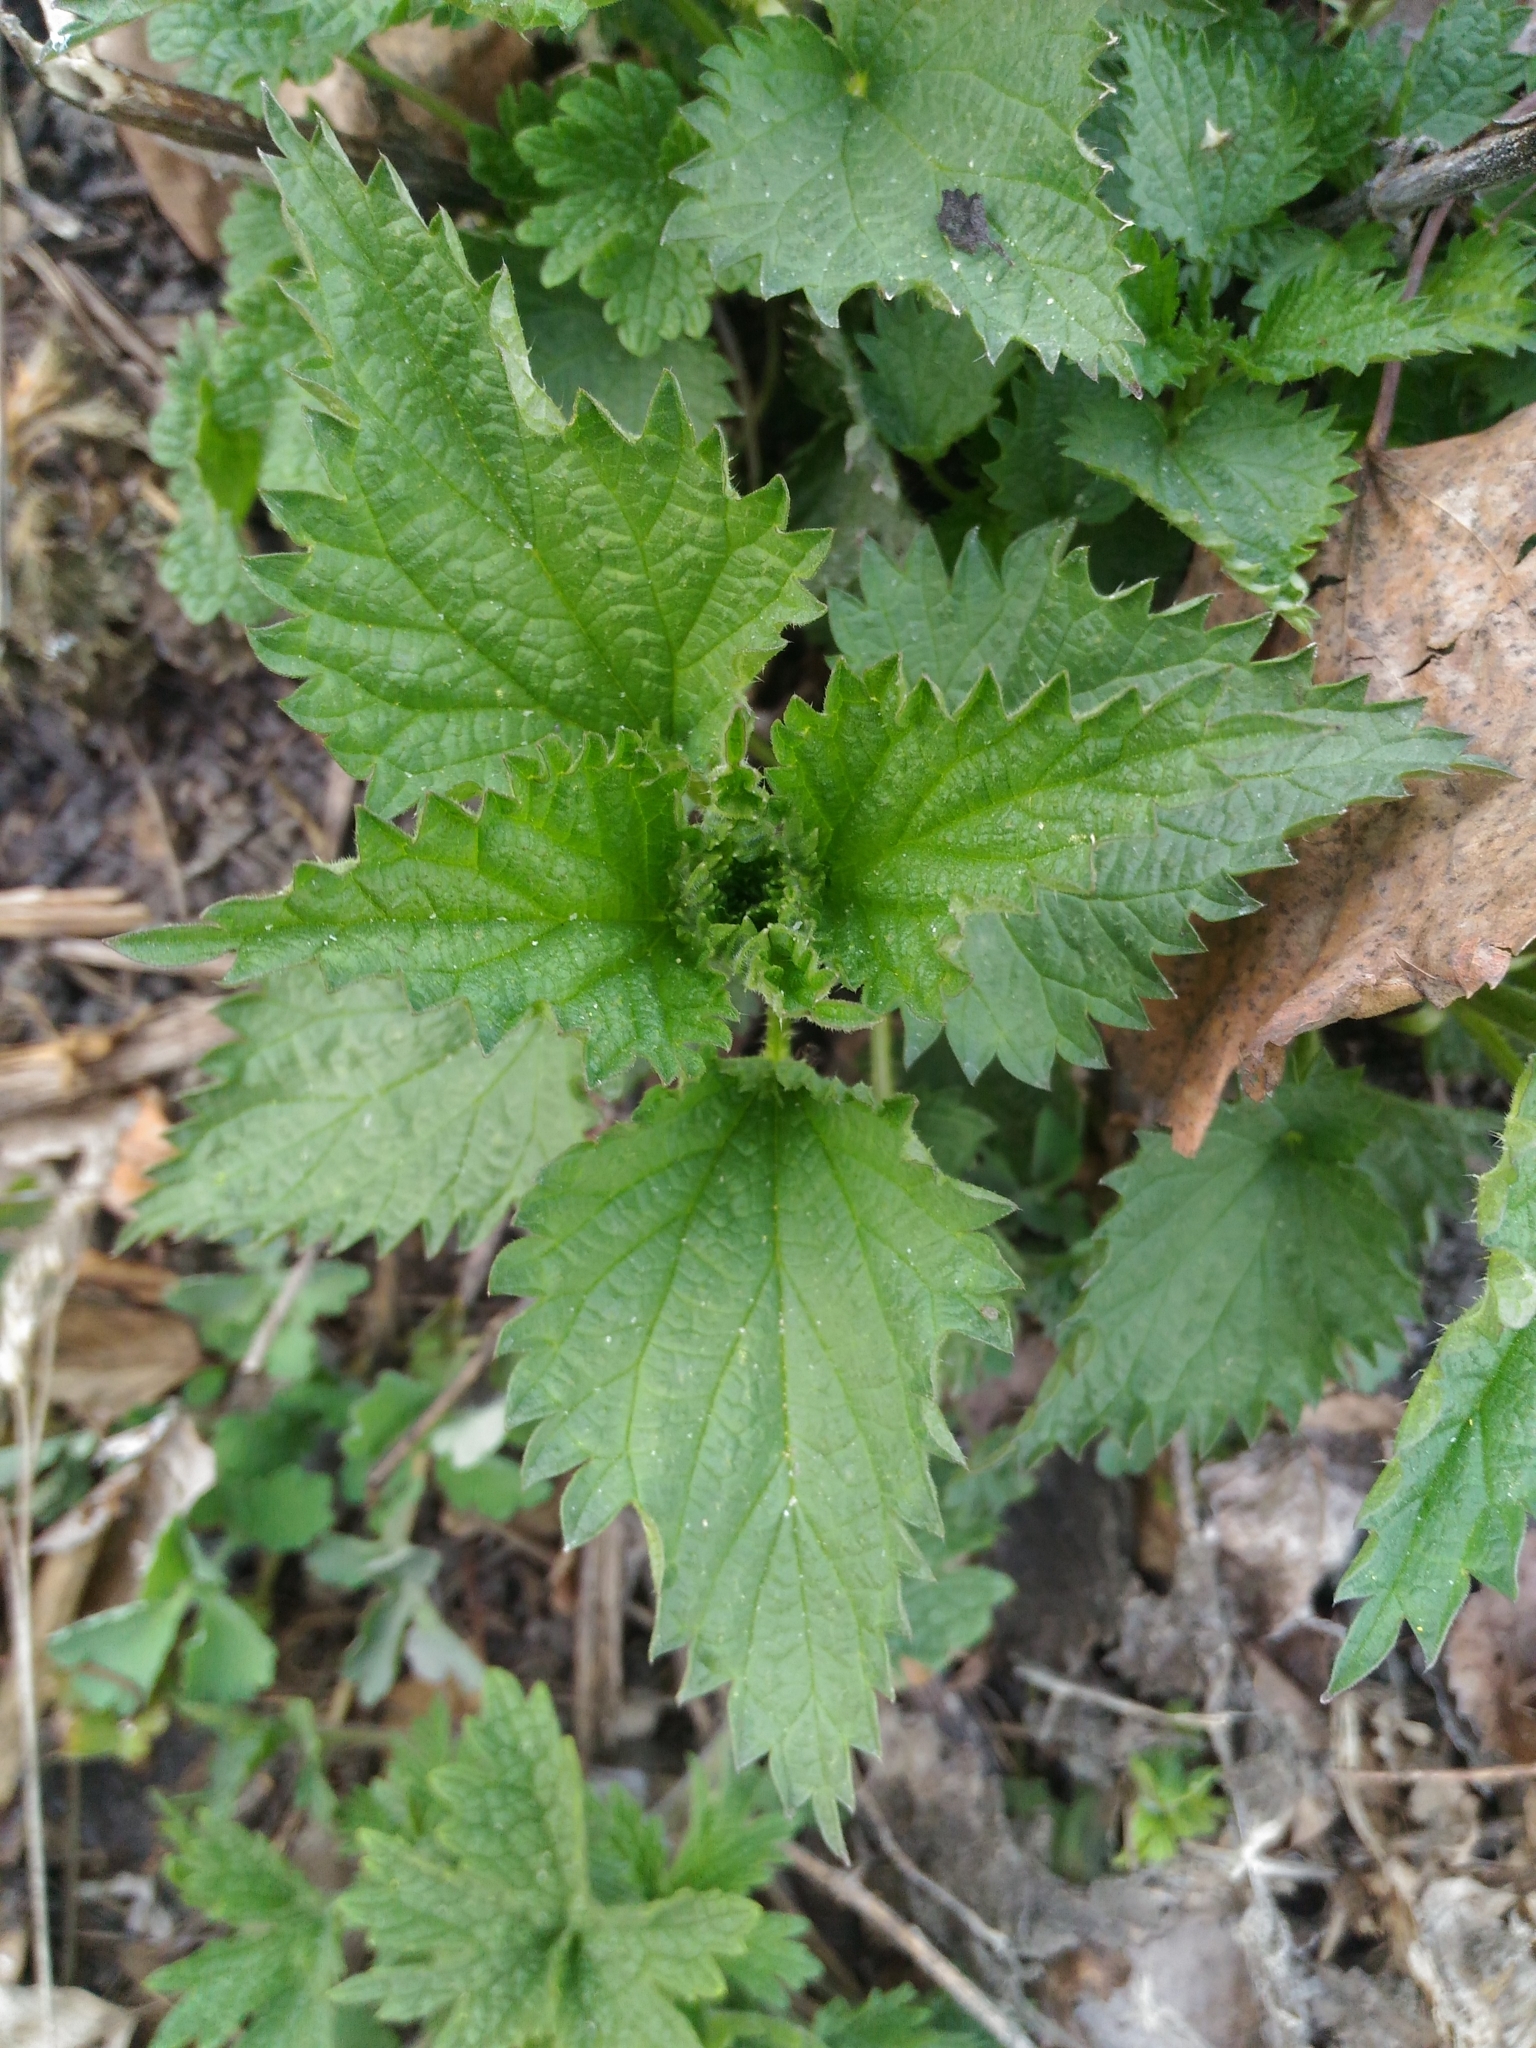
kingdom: Plantae
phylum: Tracheophyta
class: Magnoliopsida
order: Rosales
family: Urticaceae
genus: Urtica
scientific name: Urtica dioica
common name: Common nettle
